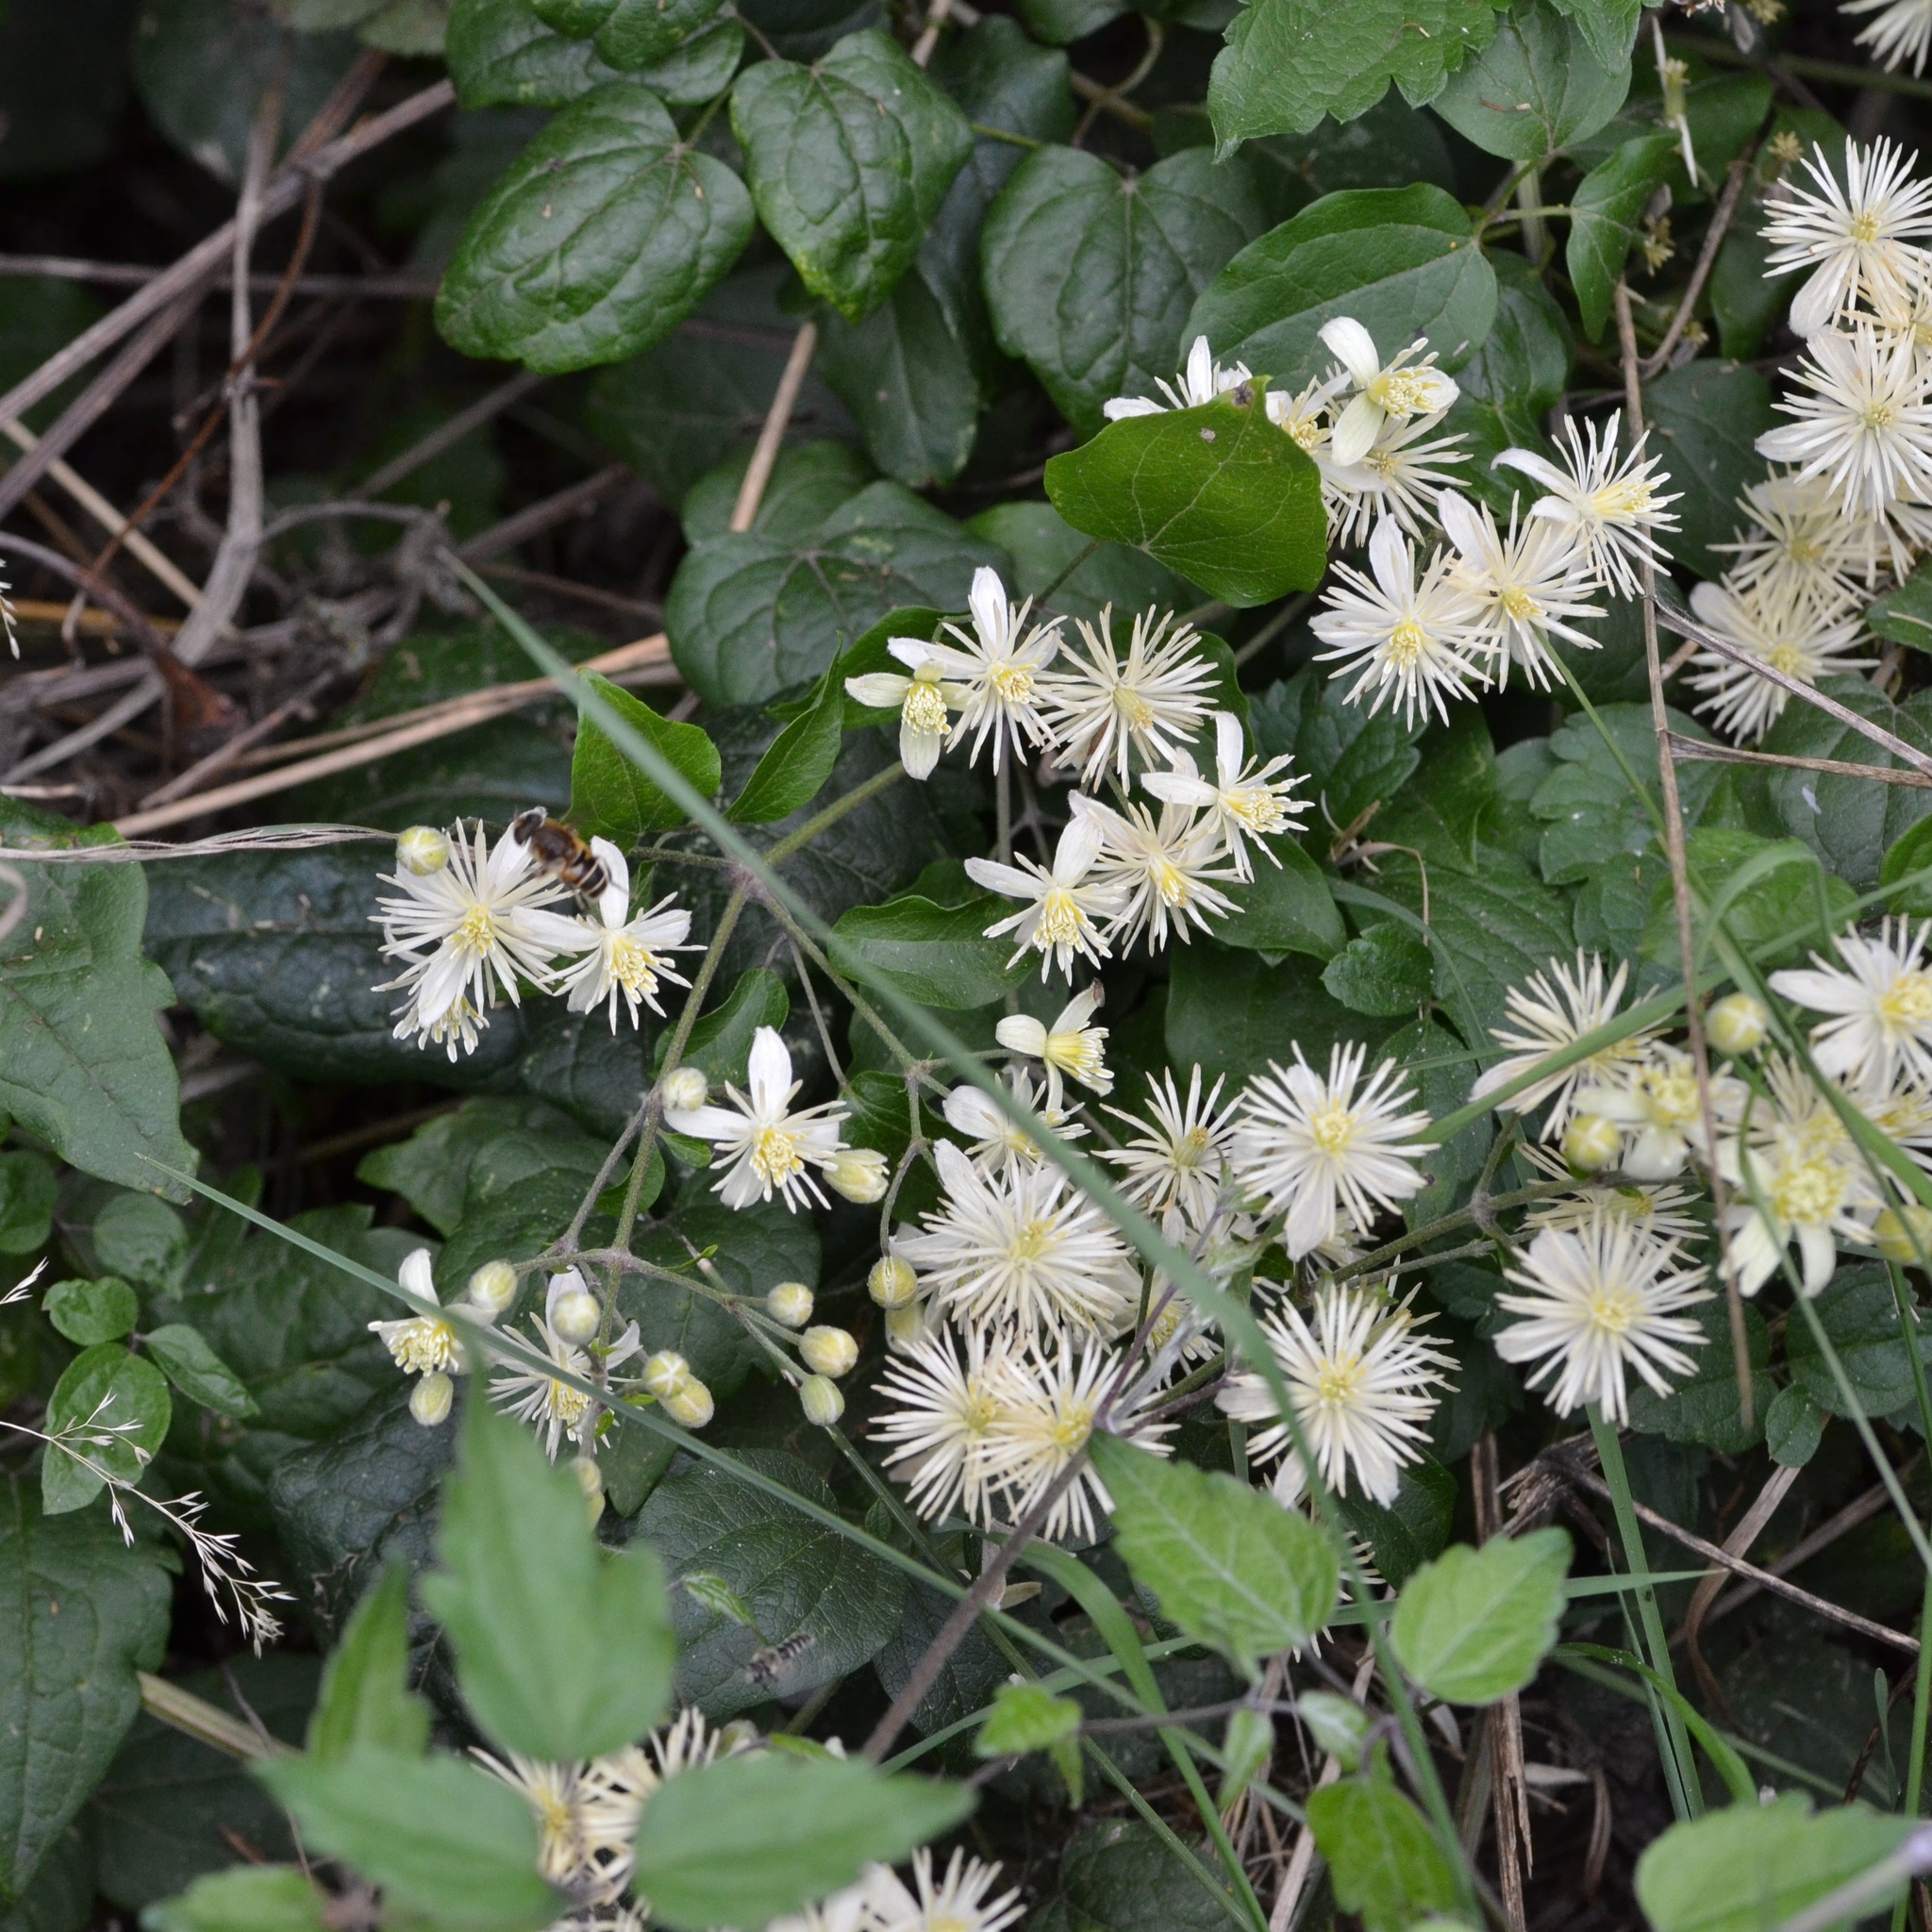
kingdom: Plantae
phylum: Tracheophyta
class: Magnoliopsida
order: Ranunculales
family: Ranunculaceae
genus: Clematis
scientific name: Clematis vitalba
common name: Evergreen clematis
